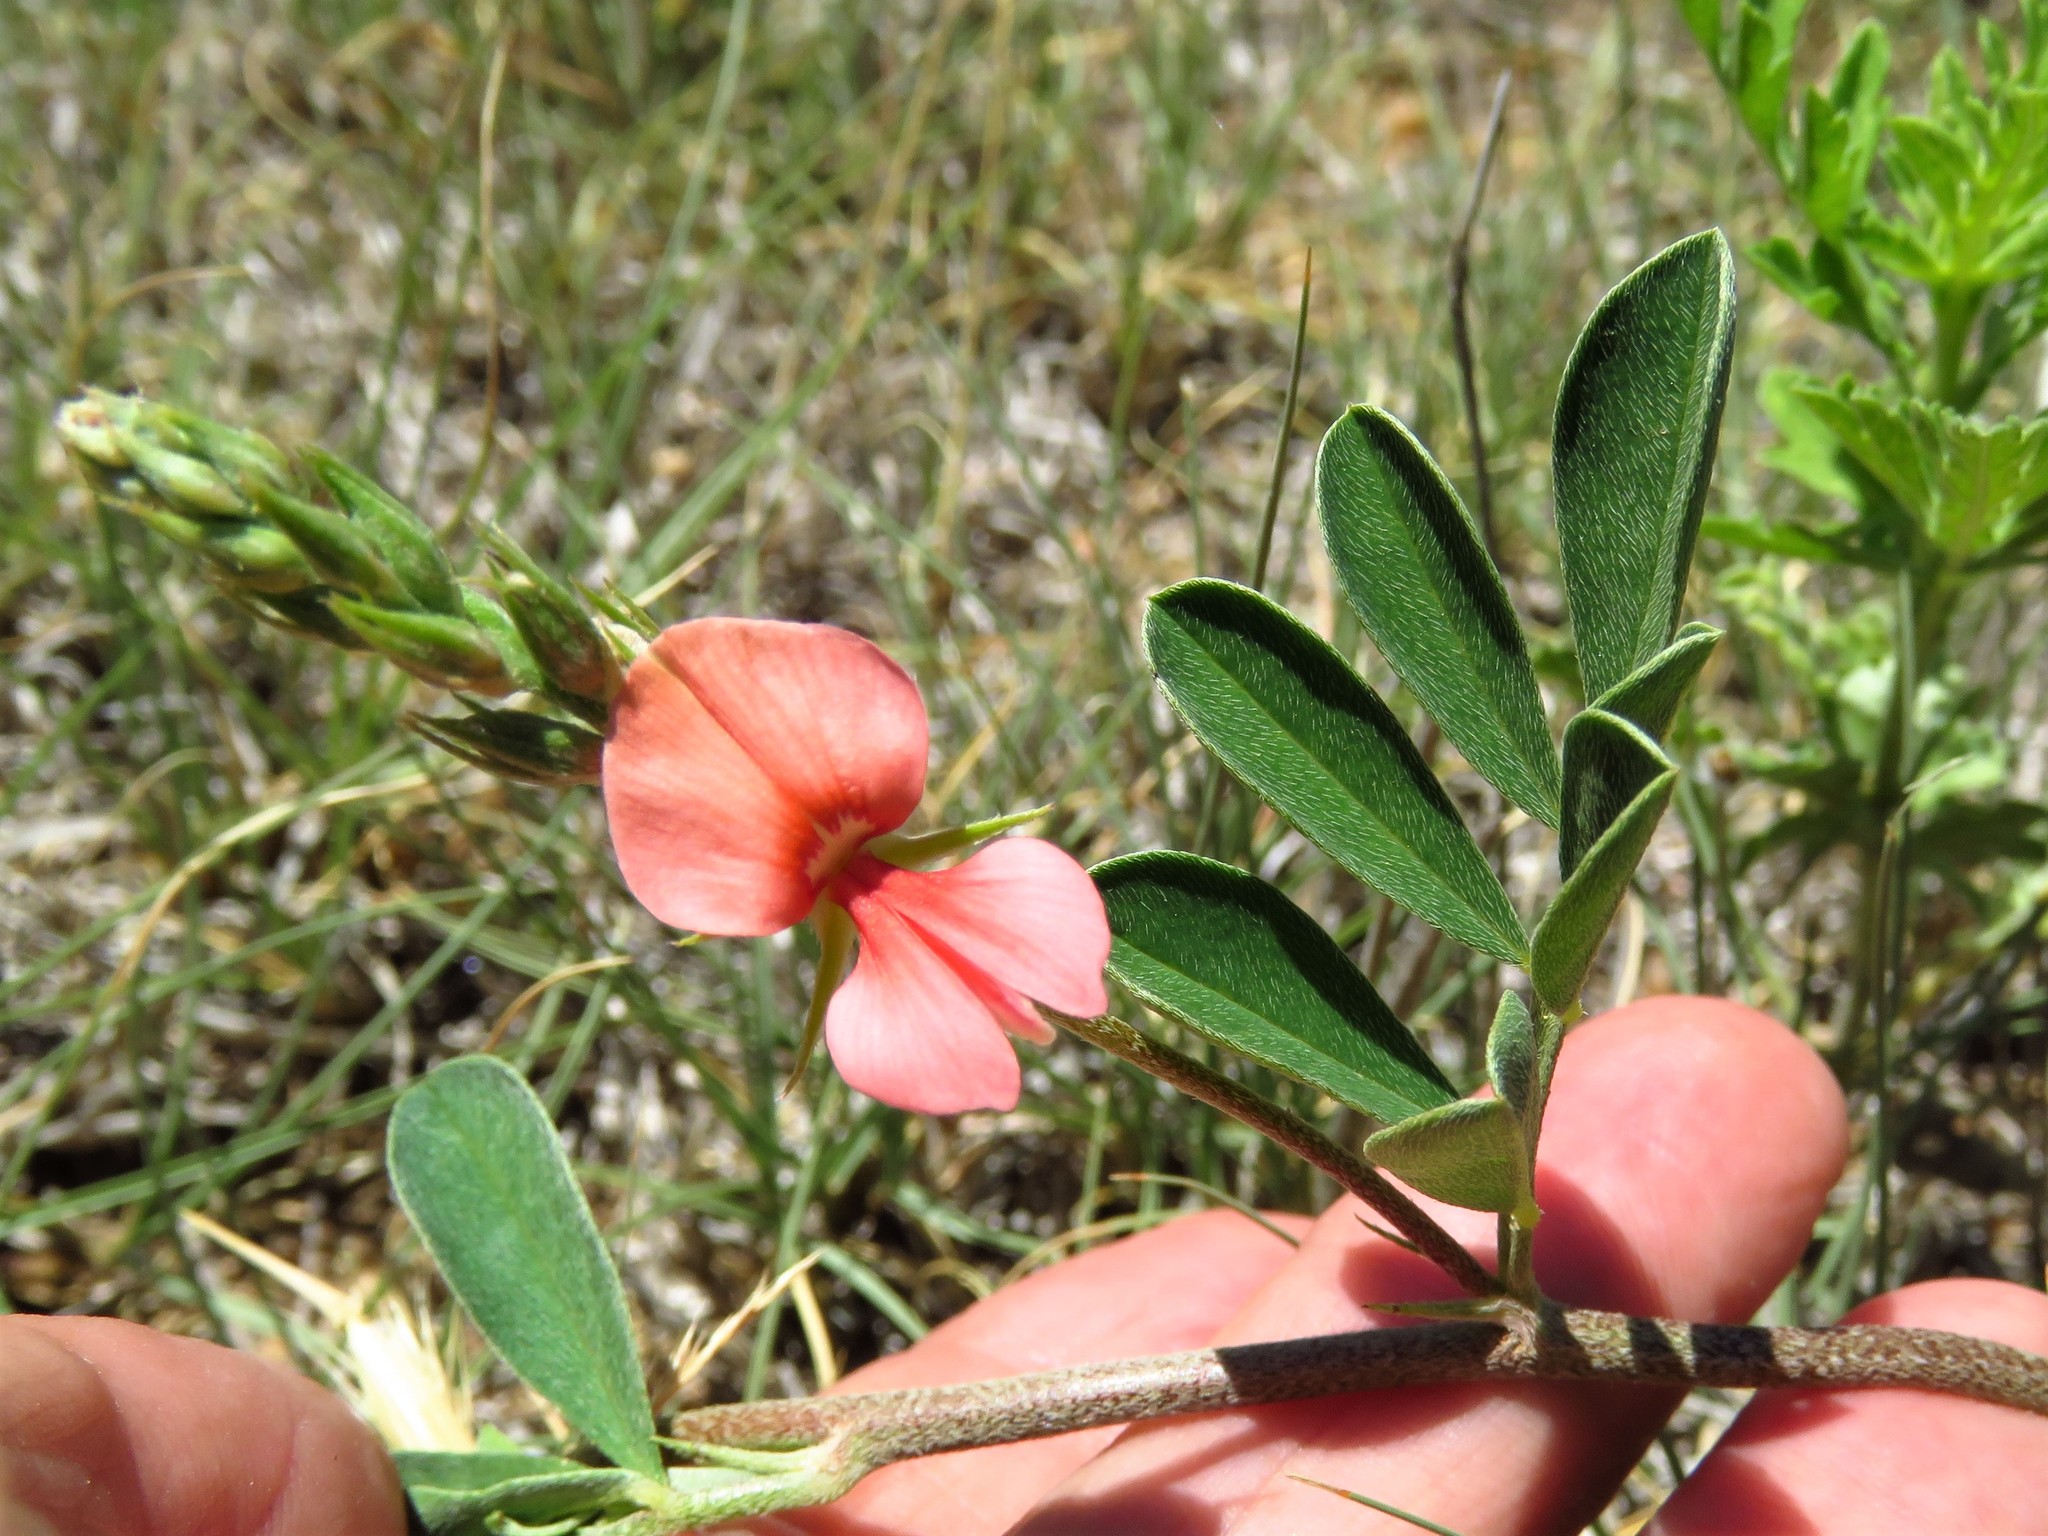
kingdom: Plantae
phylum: Tracheophyta
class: Magnoliopsida
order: Fabales
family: Fabaceae
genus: Indigofera
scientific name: Indigofera miniata
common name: Coast indigo
